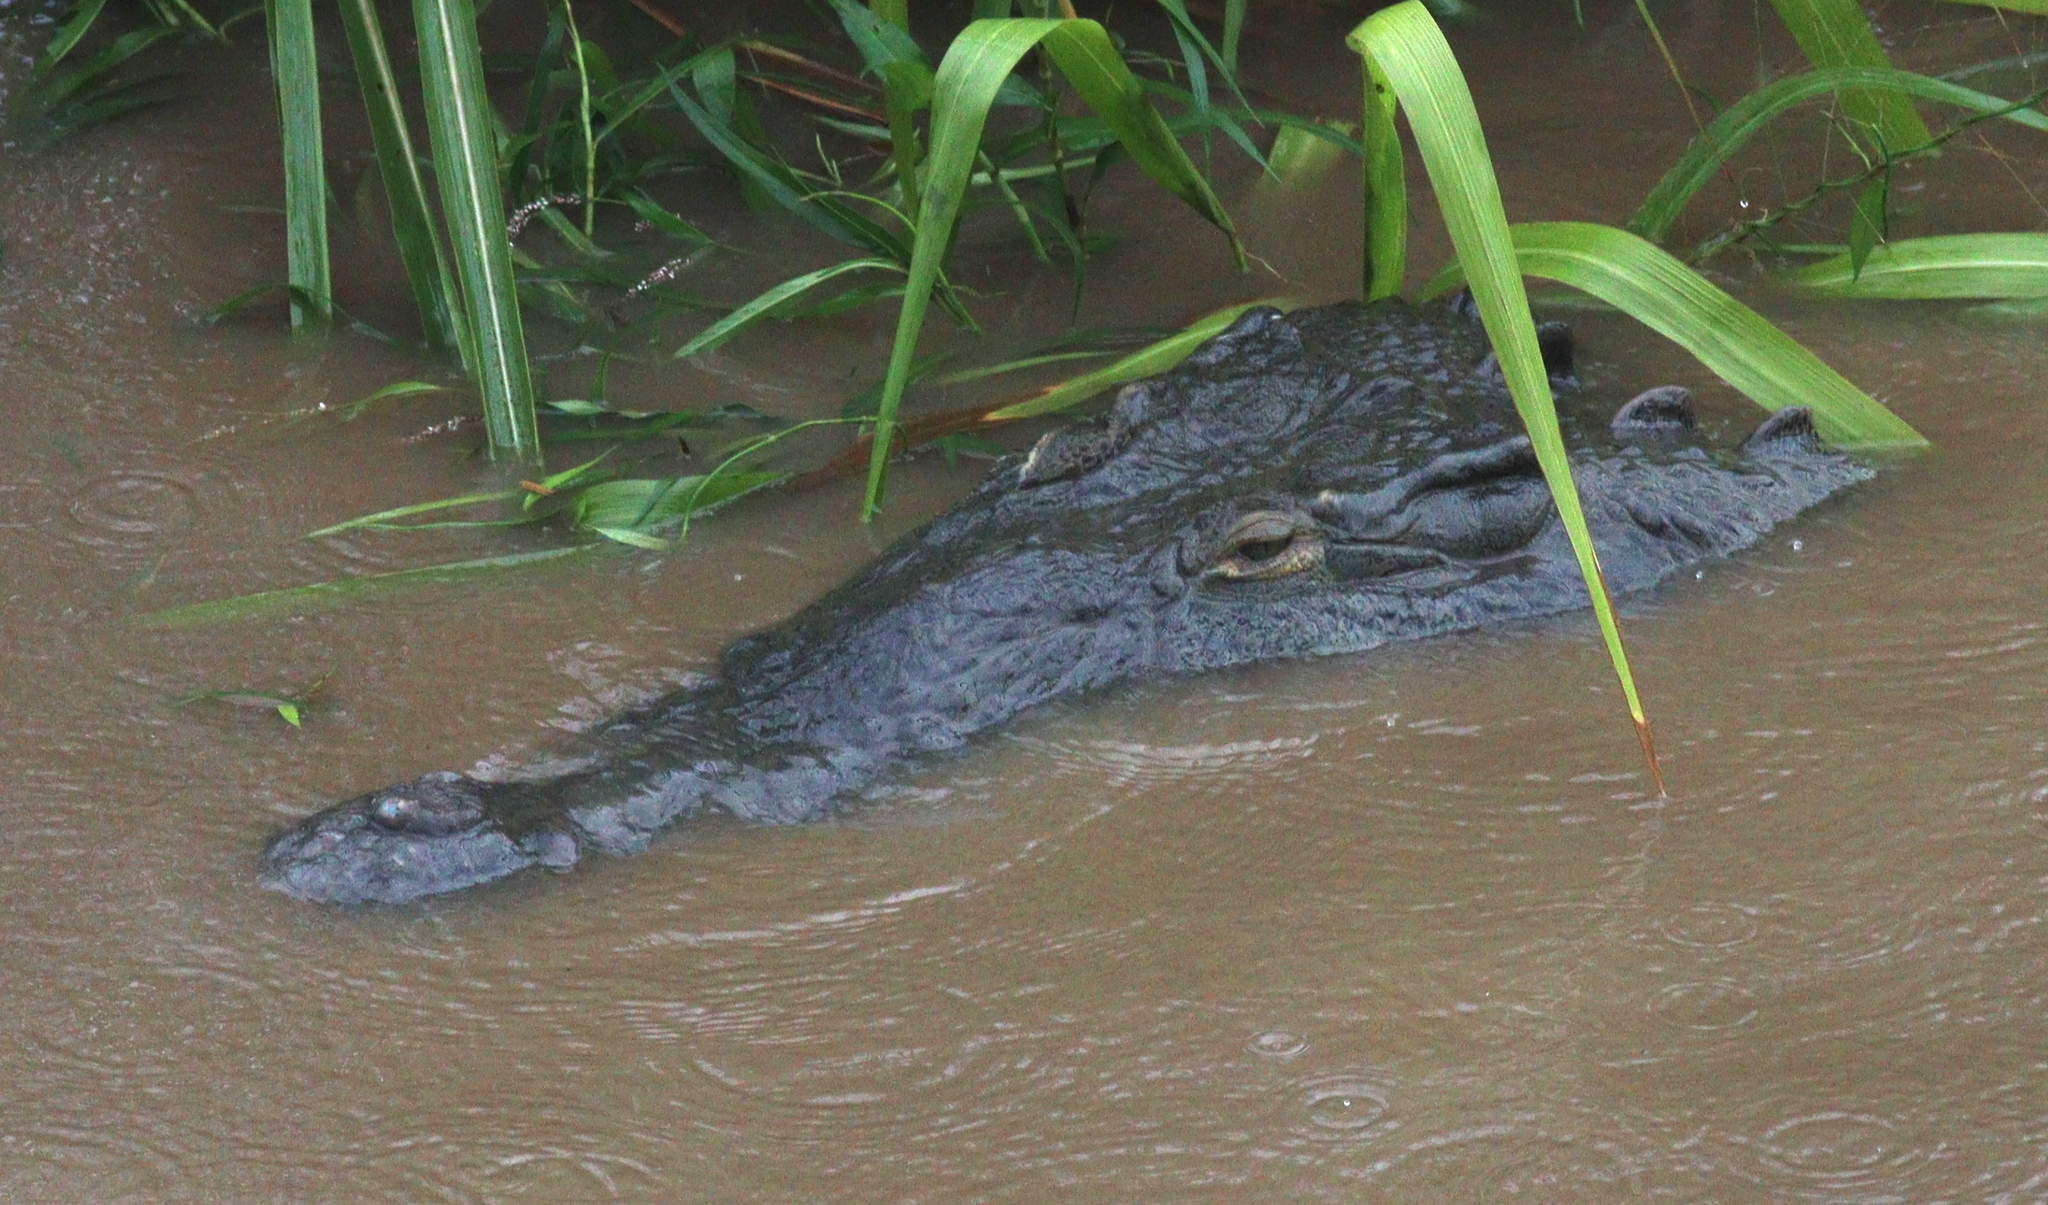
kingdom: Animalia
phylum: Chordata
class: Crocodylia
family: Crocodylidae
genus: Crocodylus
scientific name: Crocodylus acutus
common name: American crocodile
